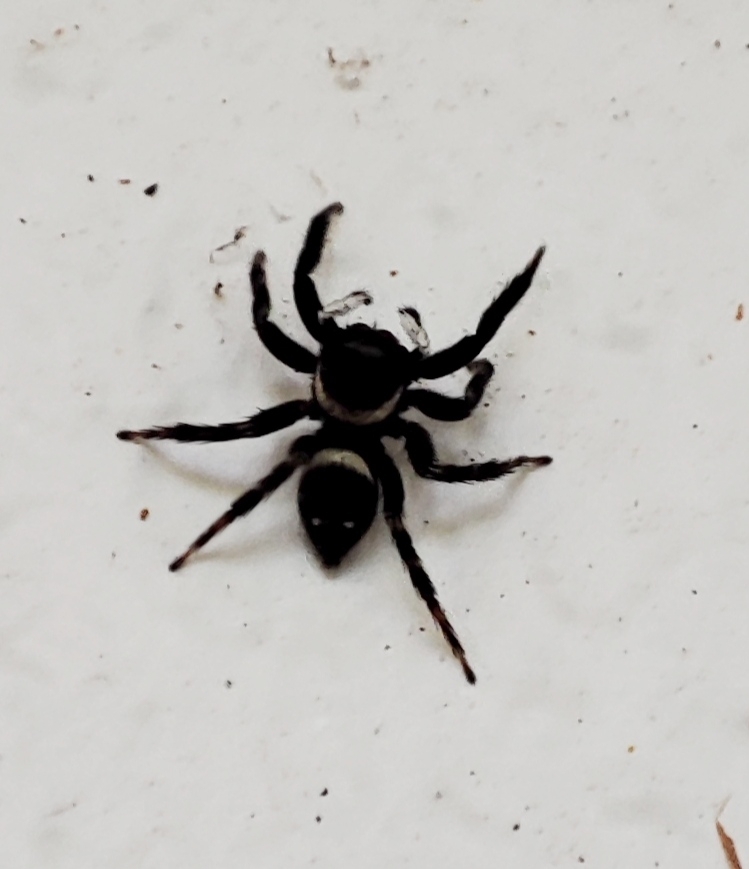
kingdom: Animalia
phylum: Arthropoda
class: Arachnida
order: Araneae
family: Salticidae
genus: Hasarius
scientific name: Hasarius adansoni
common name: Jumping spider
